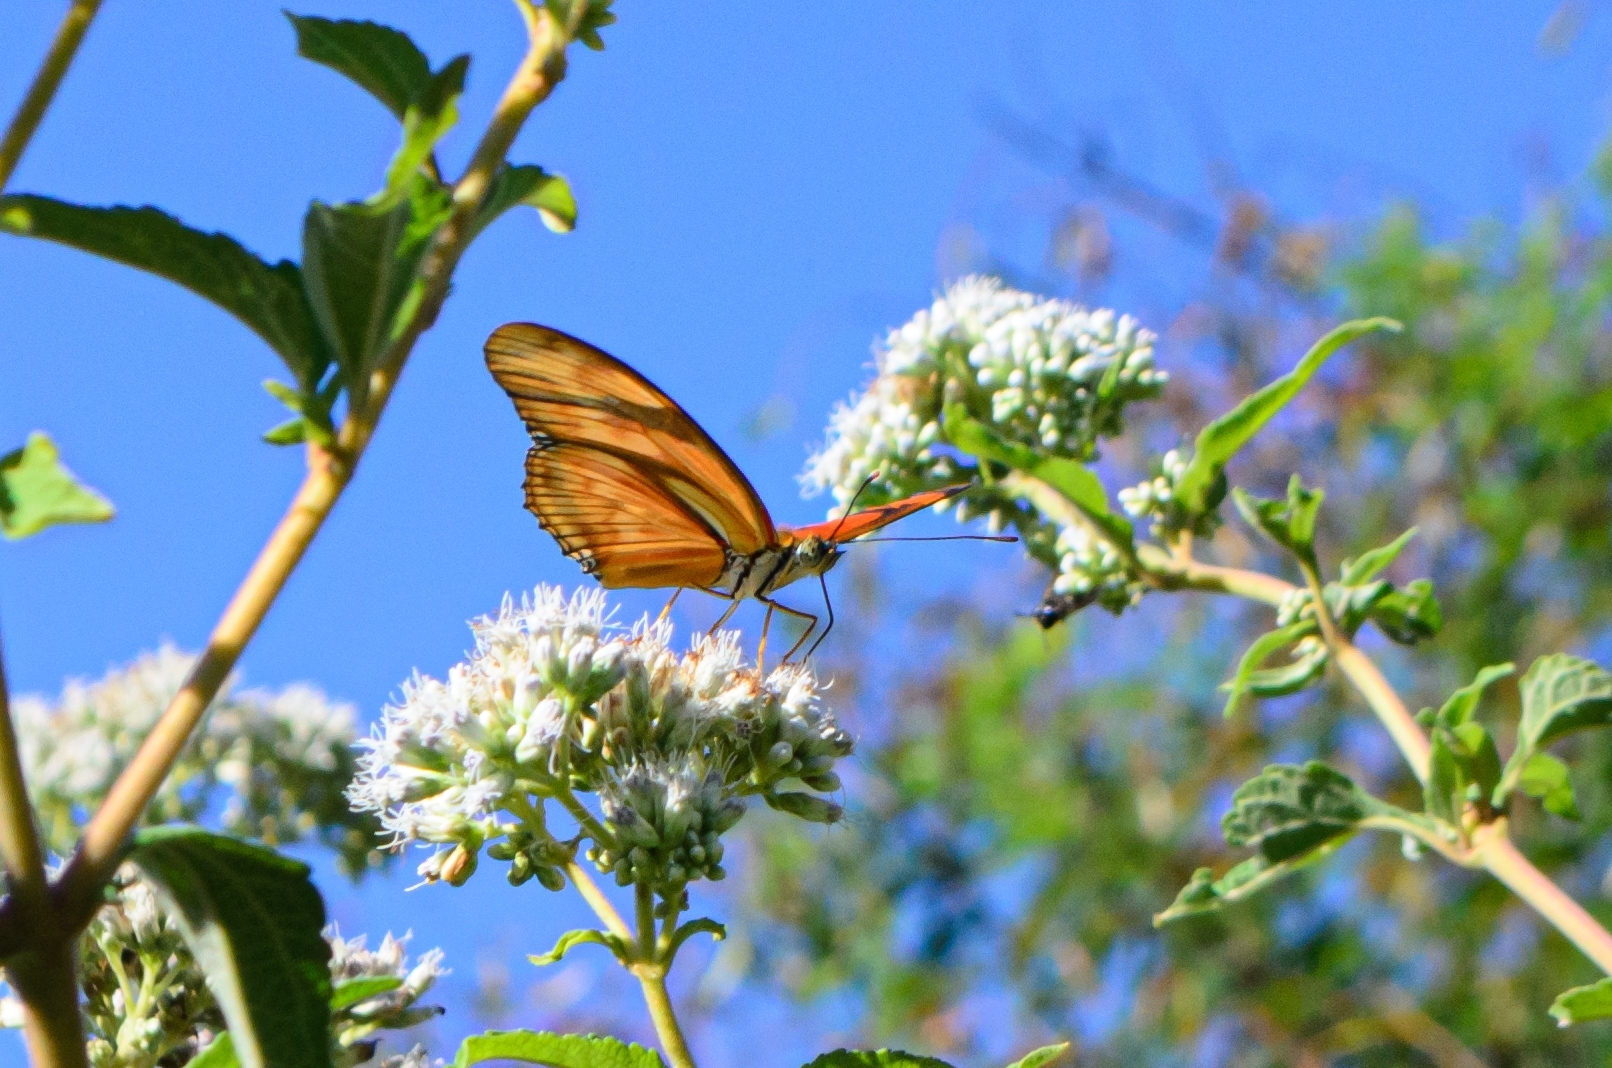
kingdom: Animalia
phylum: Arthropoda
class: Insecta
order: Lepidoptera
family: Nymphalidae
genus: Dryas
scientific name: Dryas iulia
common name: Flambeau
